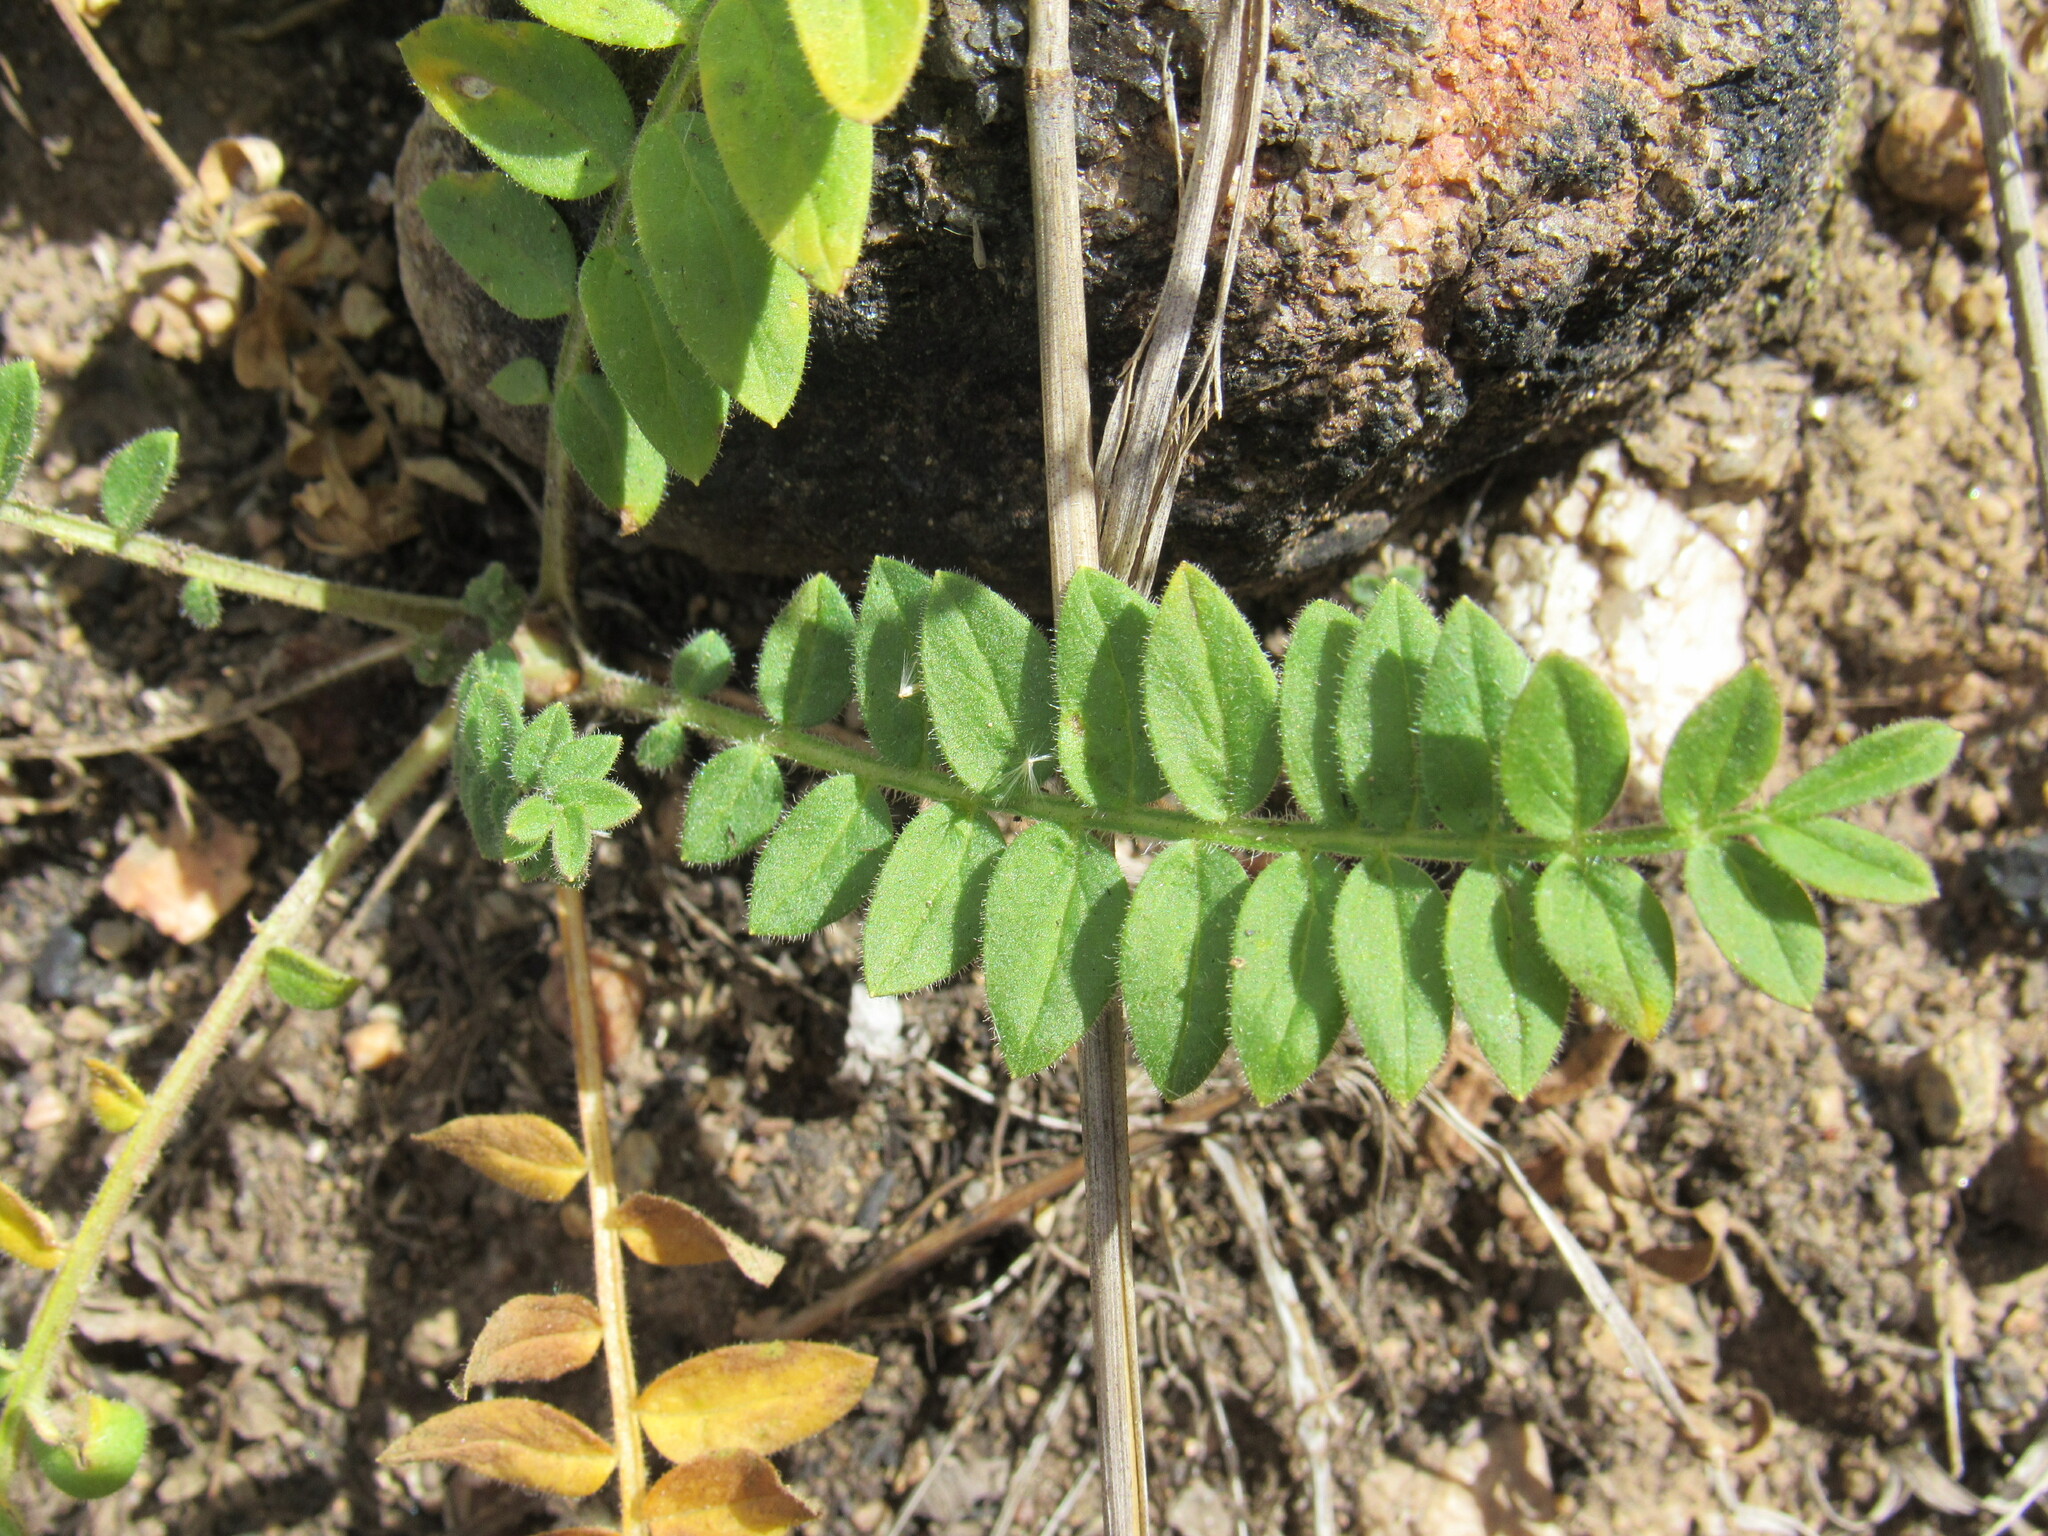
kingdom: Plantae
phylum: Tracheophyta
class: Magnoliopsida
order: Ericales
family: Polemoniaceae
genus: Polemonium
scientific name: Polemonium pulcherrimum
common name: Short jacob's-ladder
